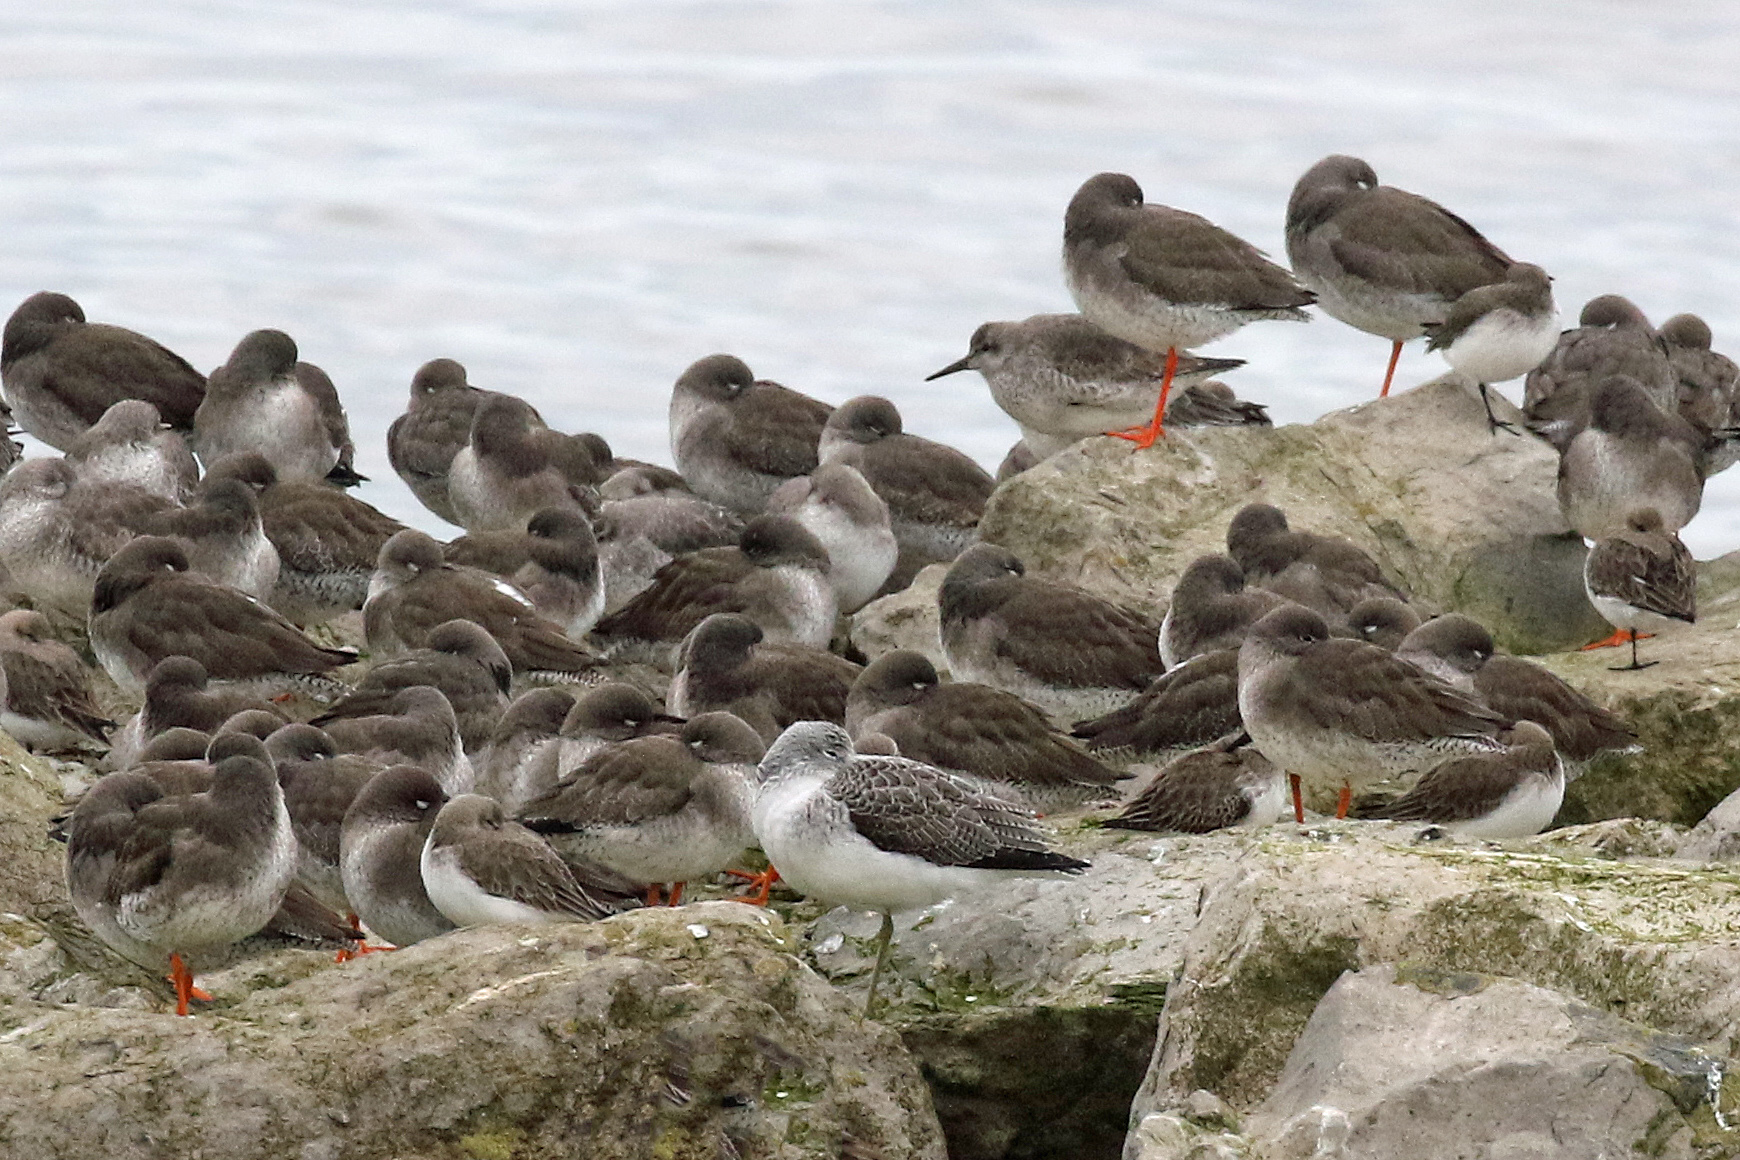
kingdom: Animalia
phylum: Chordata
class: Aves
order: Charadriiformes
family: Scolopacidae
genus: Tringa
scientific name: Tringa nebularia
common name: Common greenshank
